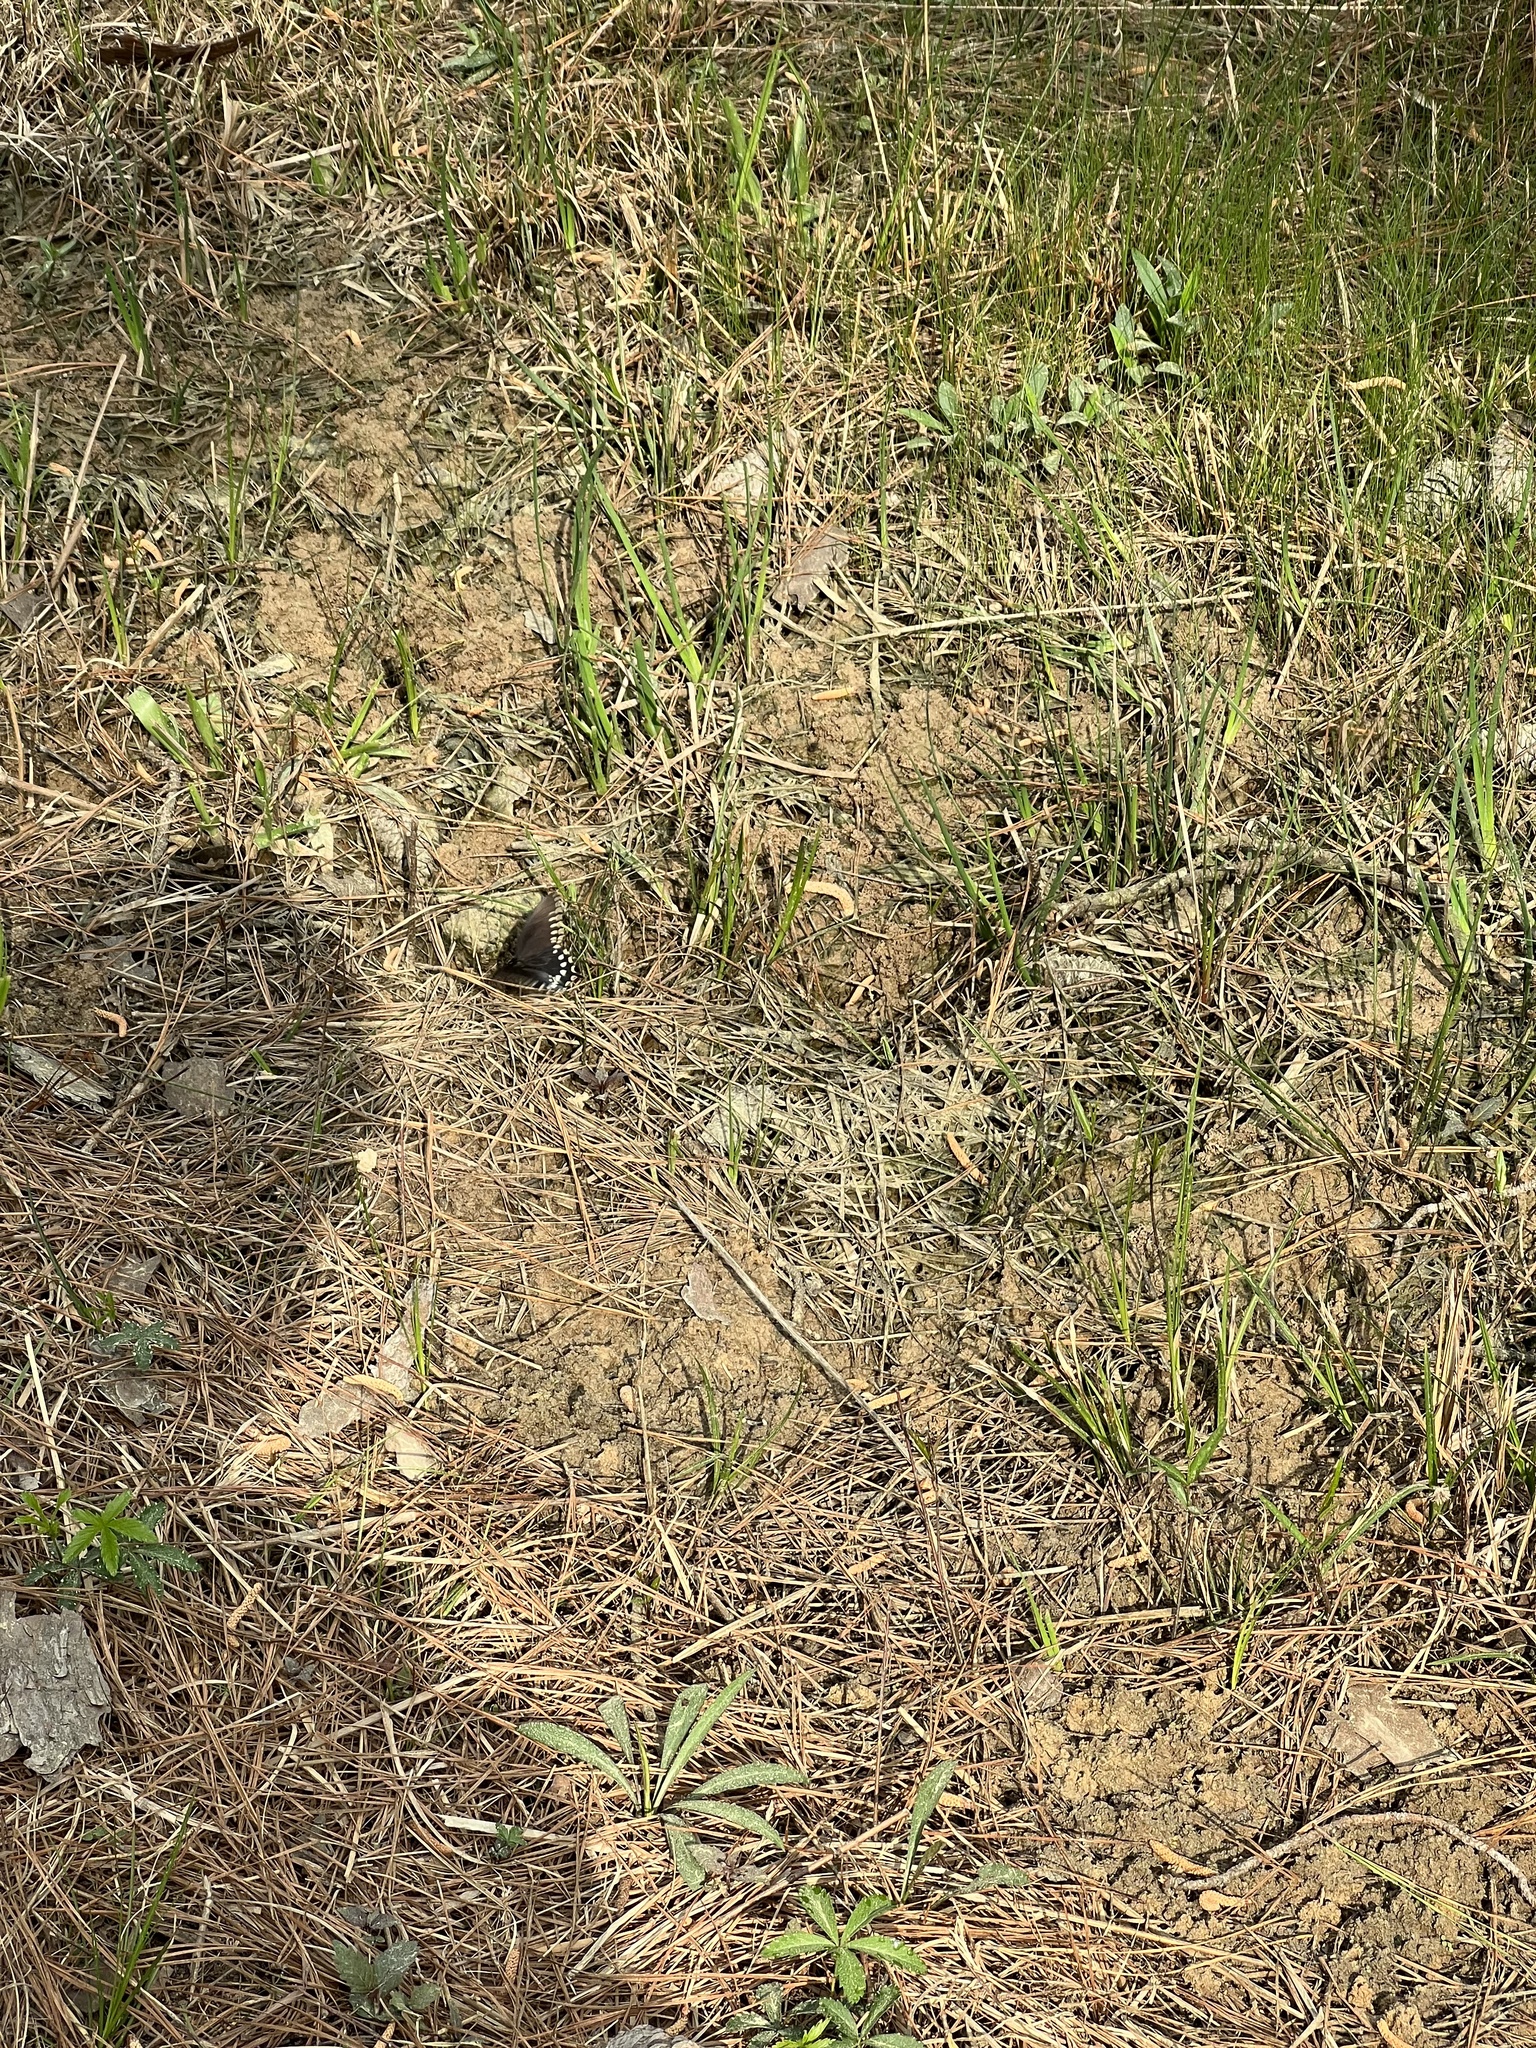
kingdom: Animalia
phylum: Arthropoda
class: Insecta
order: Lepidoptera
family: Papilionidae
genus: Battus
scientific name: Battus philenor
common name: Pipevine swallowtail
